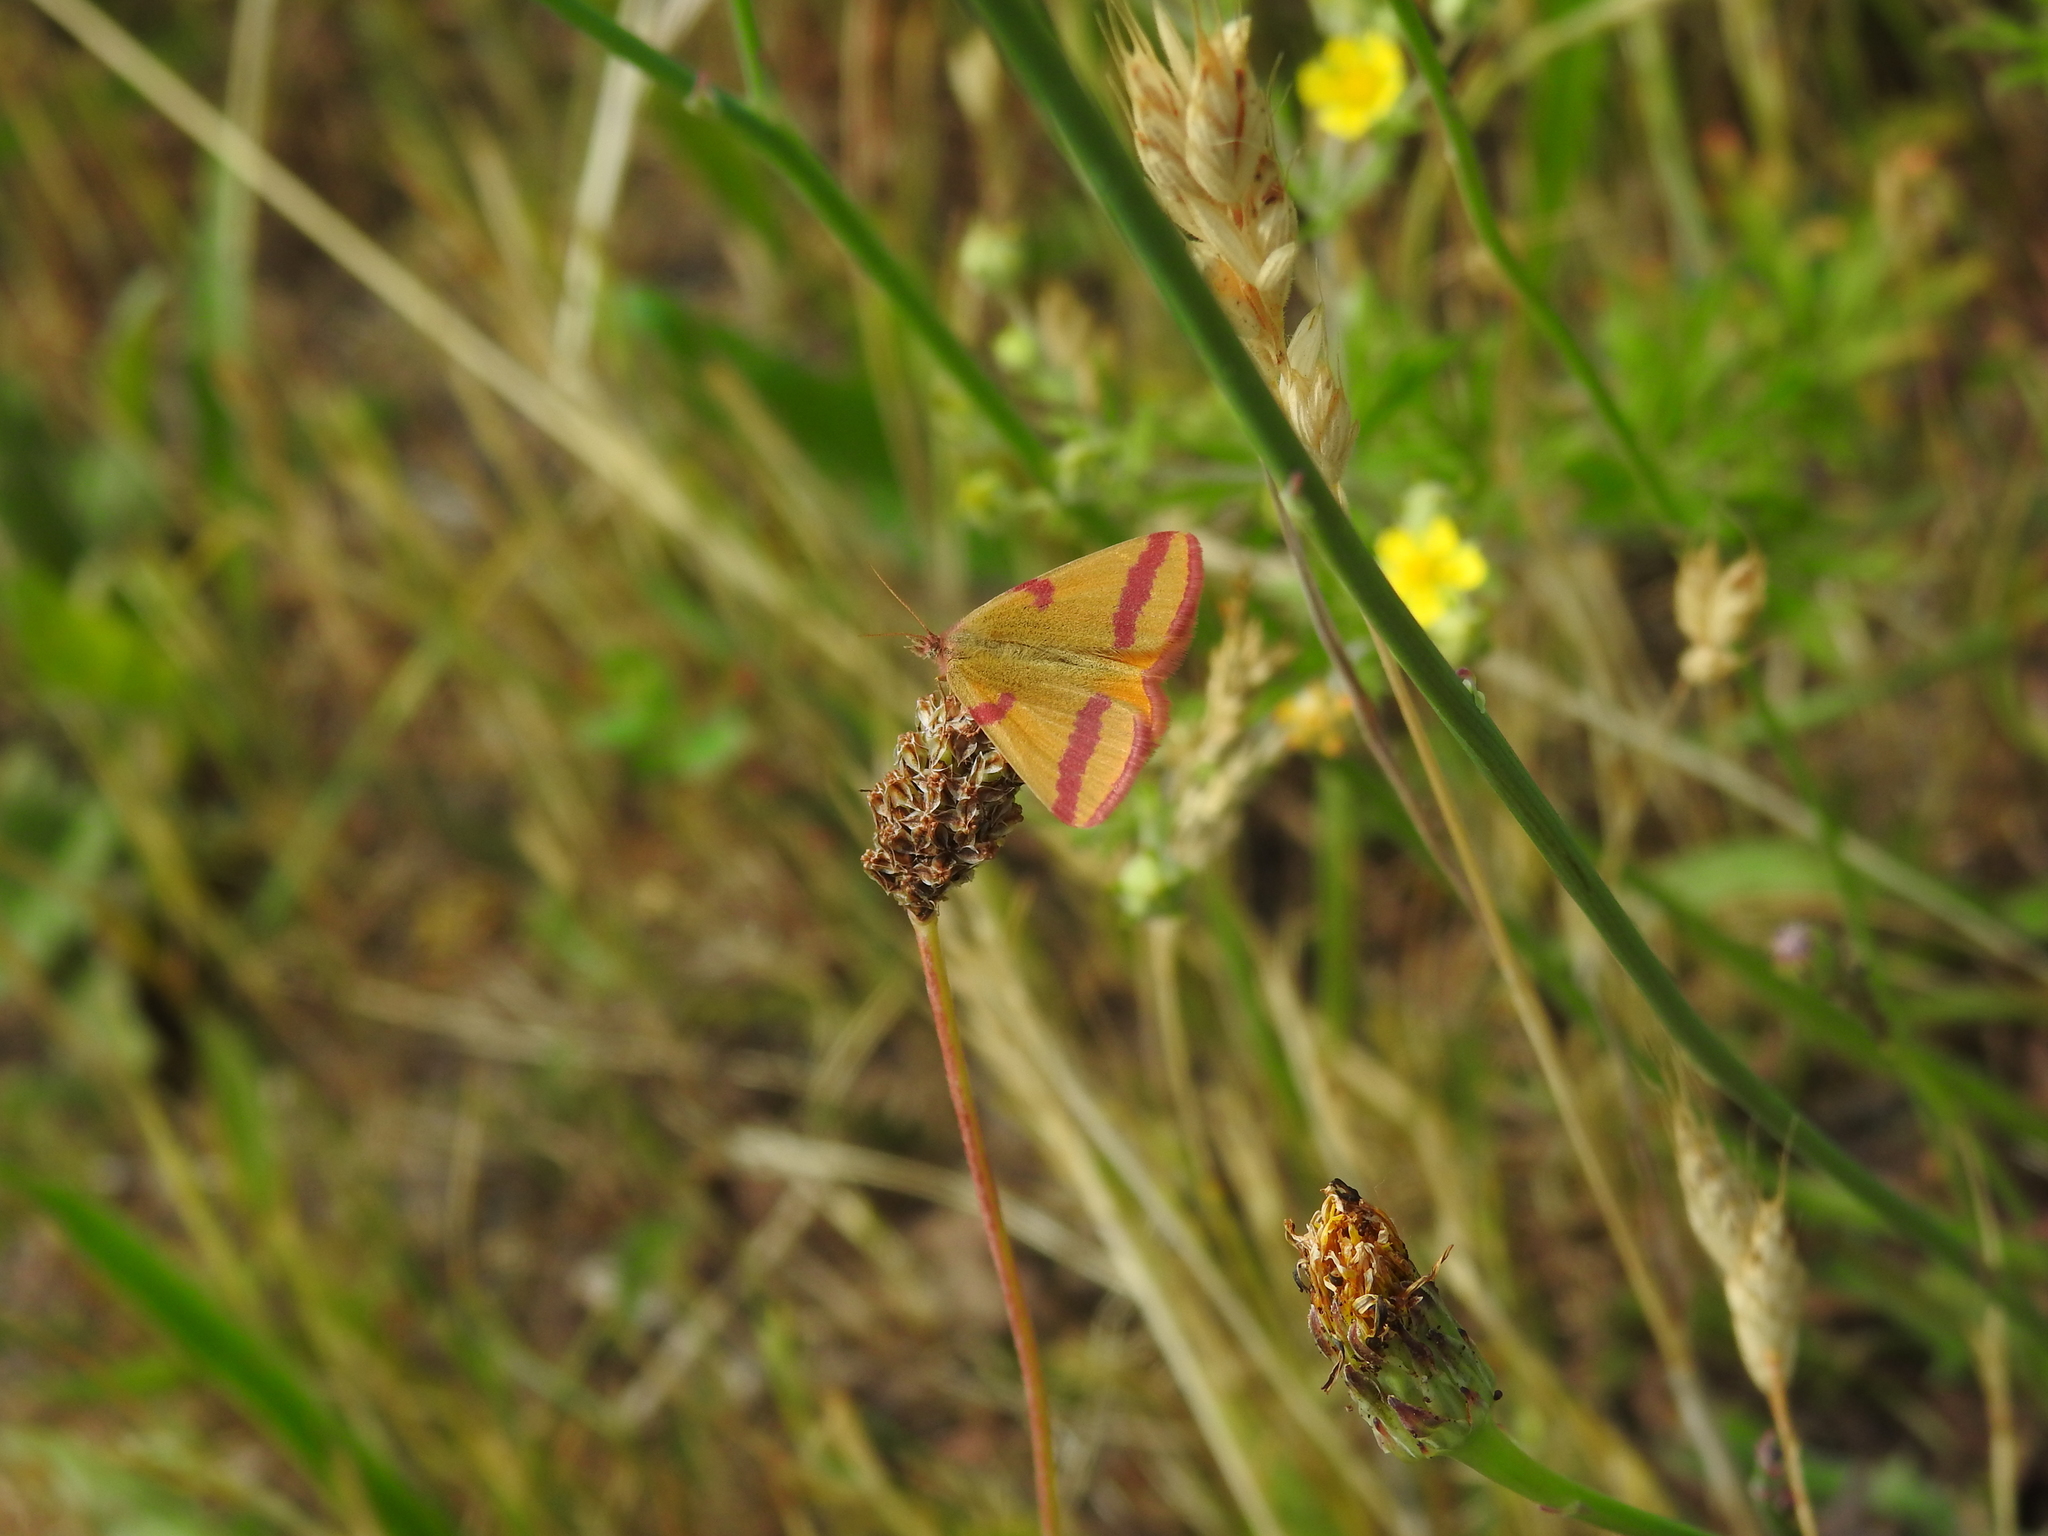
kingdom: Animalia
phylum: Arthropoda
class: Insecta
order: Lepidoptera
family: Geometridae
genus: Lythria
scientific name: Lythria cruentaria
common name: Purple-barred yellow
